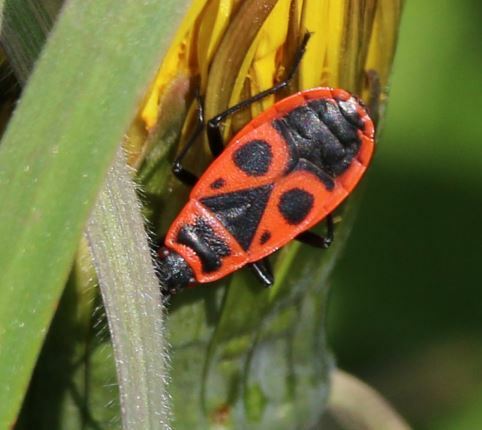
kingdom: Animalia
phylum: Arthropoda
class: Insecta
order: Hemiptera
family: Pyrrhocoridae
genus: Pyrrhocoris
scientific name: Pyrrhocoris apterus
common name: Firebug
